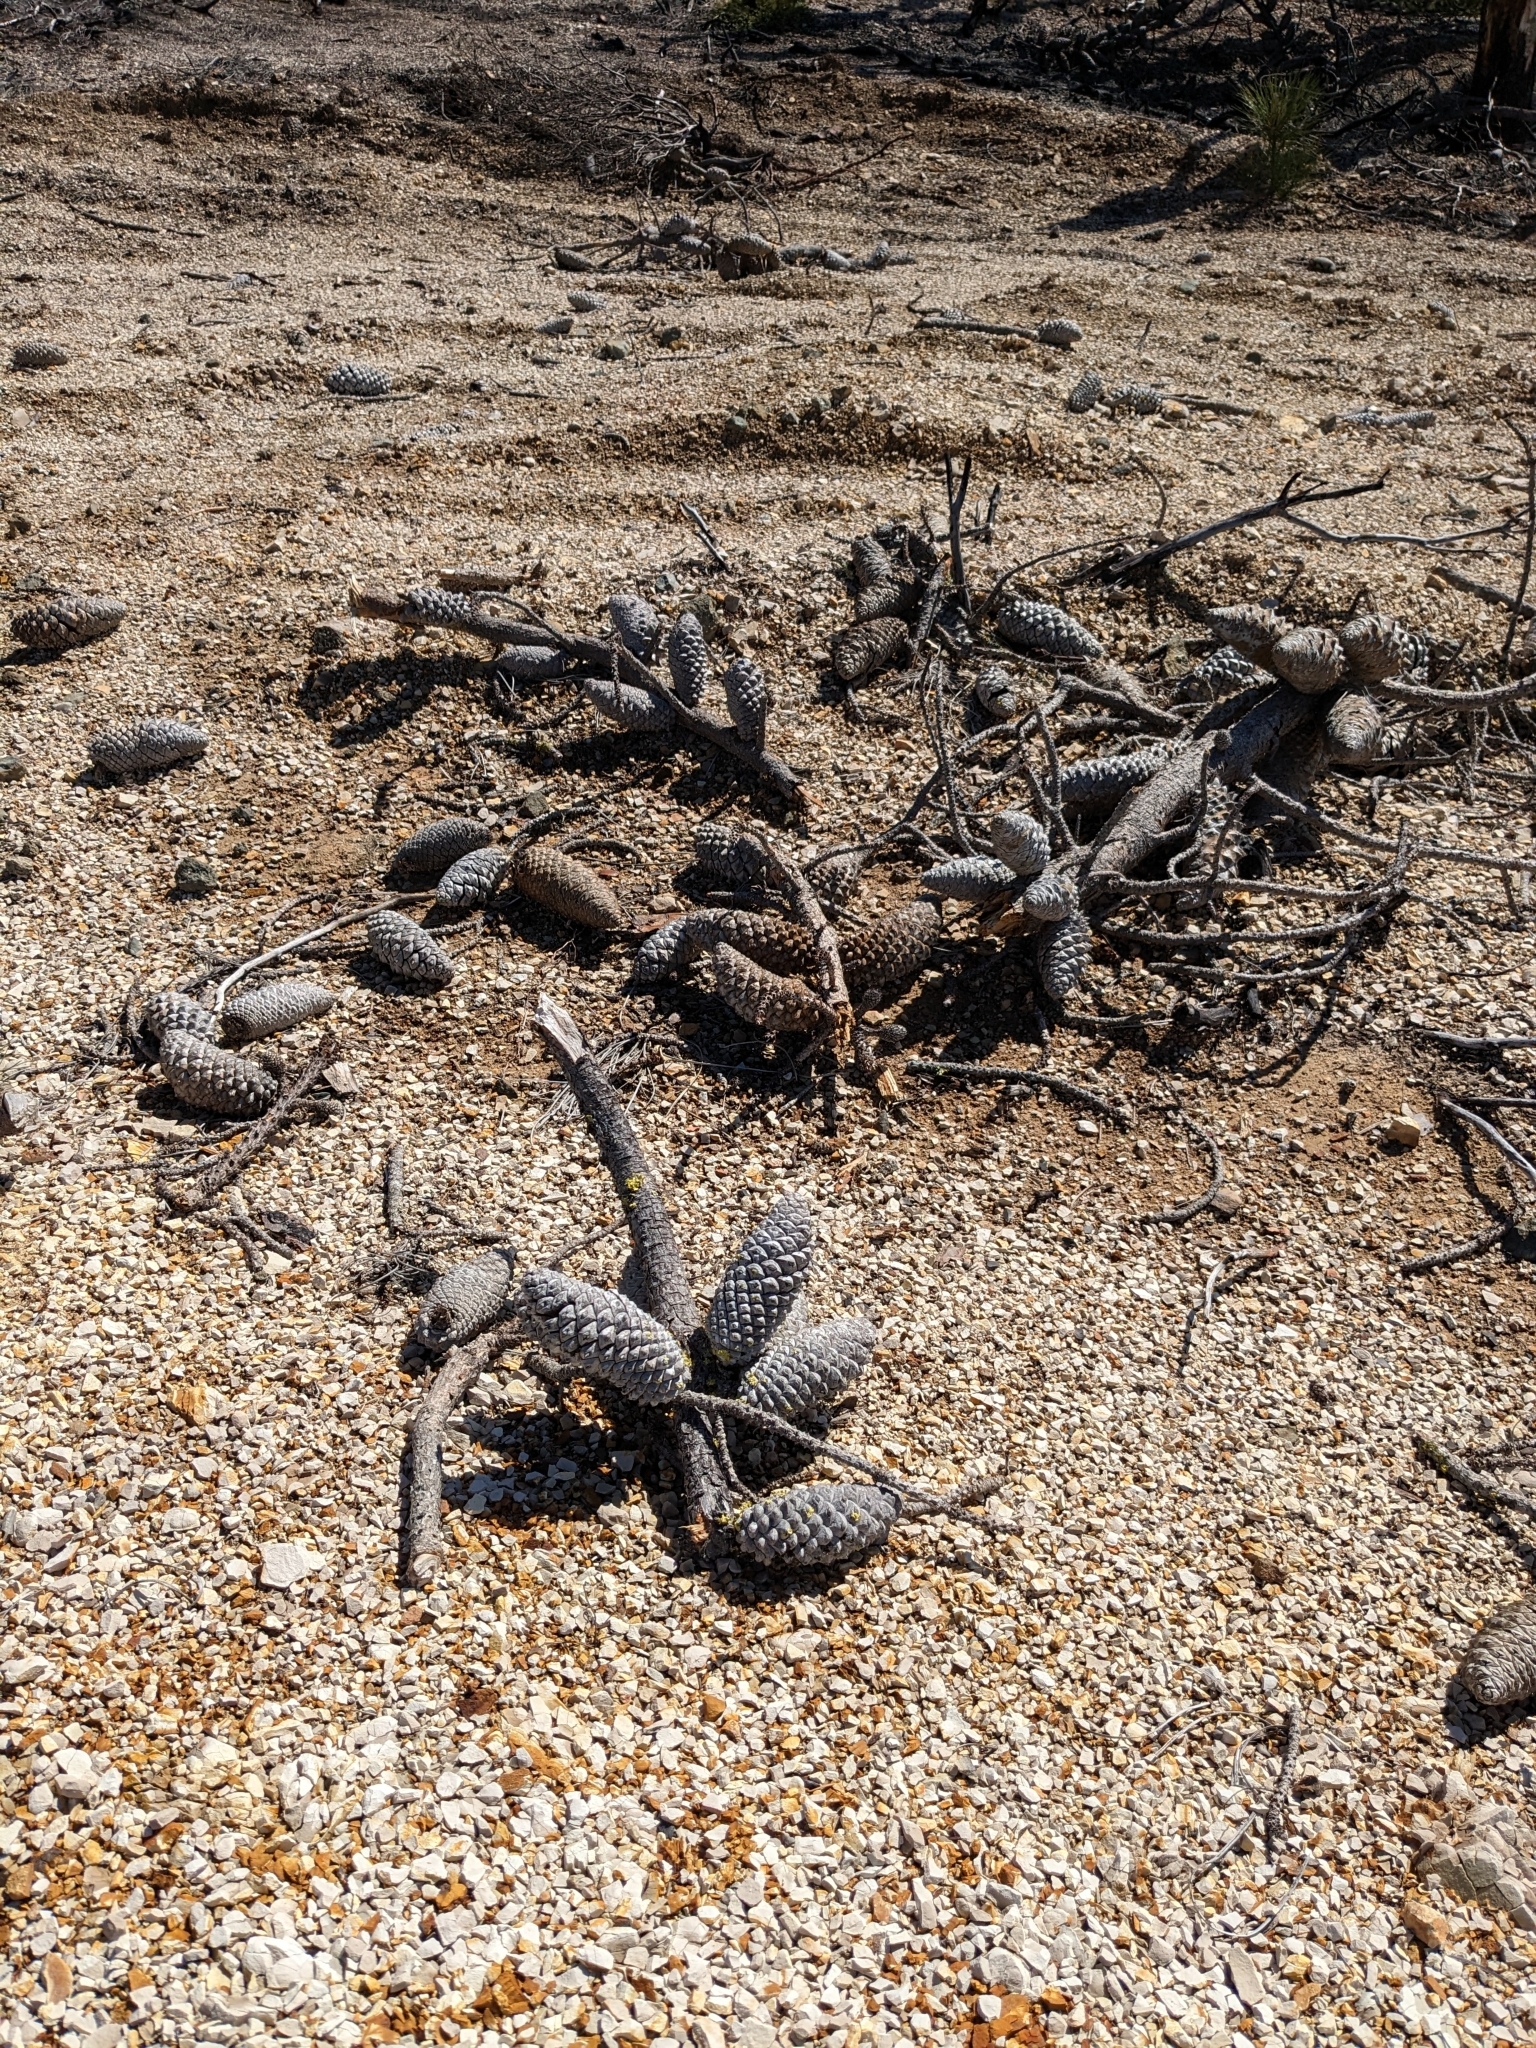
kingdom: Plantae
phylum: Tracheophyta
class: Pinopsida
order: Pinales
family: Pinaceae
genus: Pinus
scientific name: Pinus attenuata
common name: Knobcone pine
